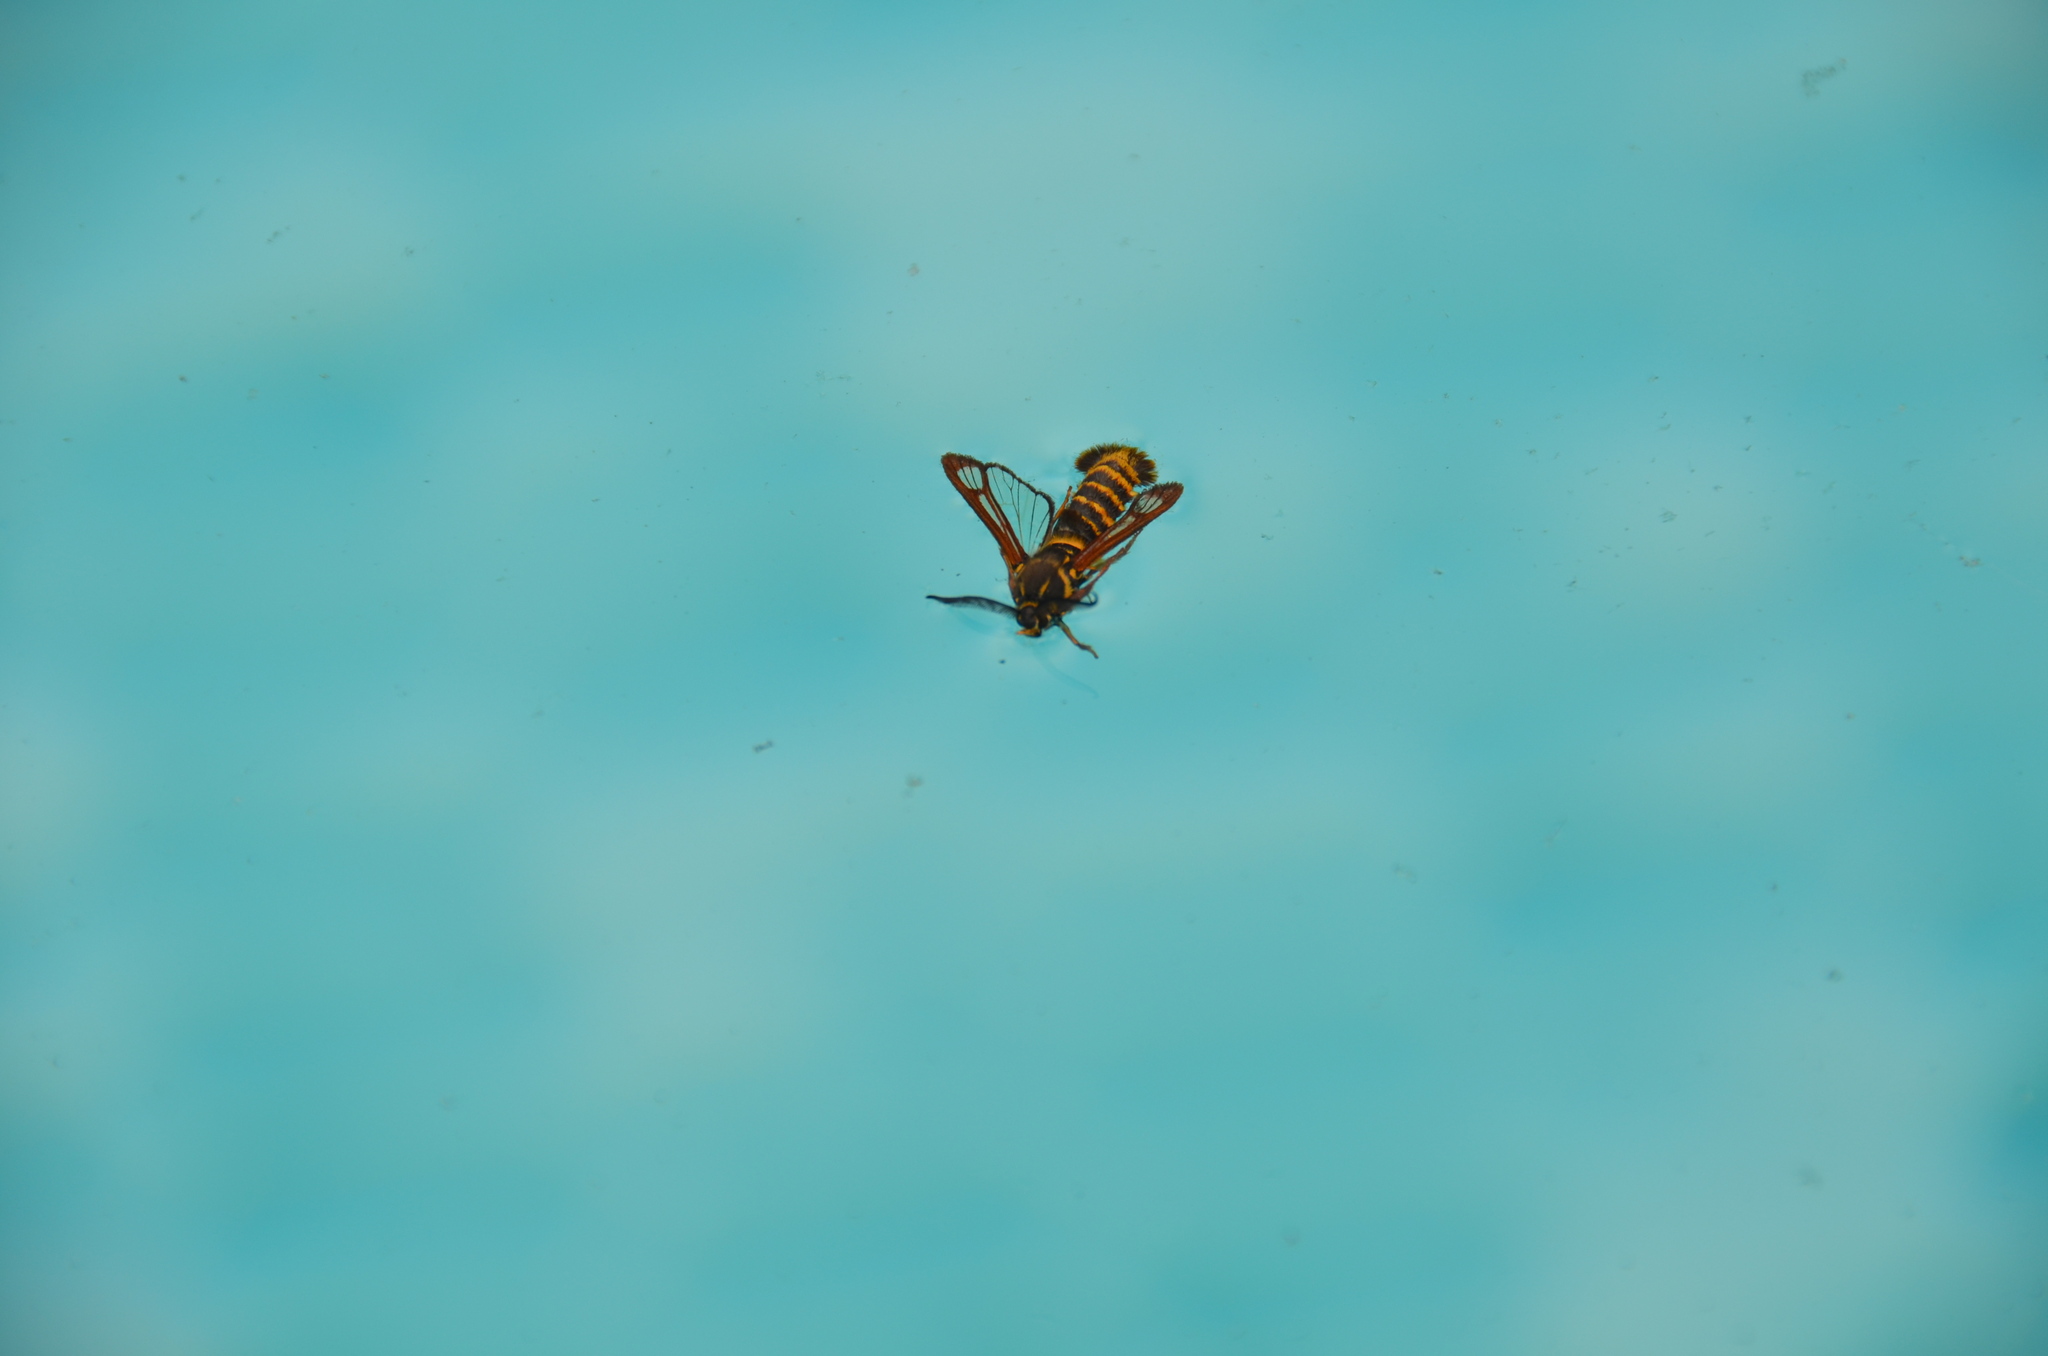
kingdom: Animalia
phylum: Arthropoda
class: Insecta
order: Lepidoptera
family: Sesiidae
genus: Pennisetia
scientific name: Pennisetia marginatum
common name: Raspberry crown borer
